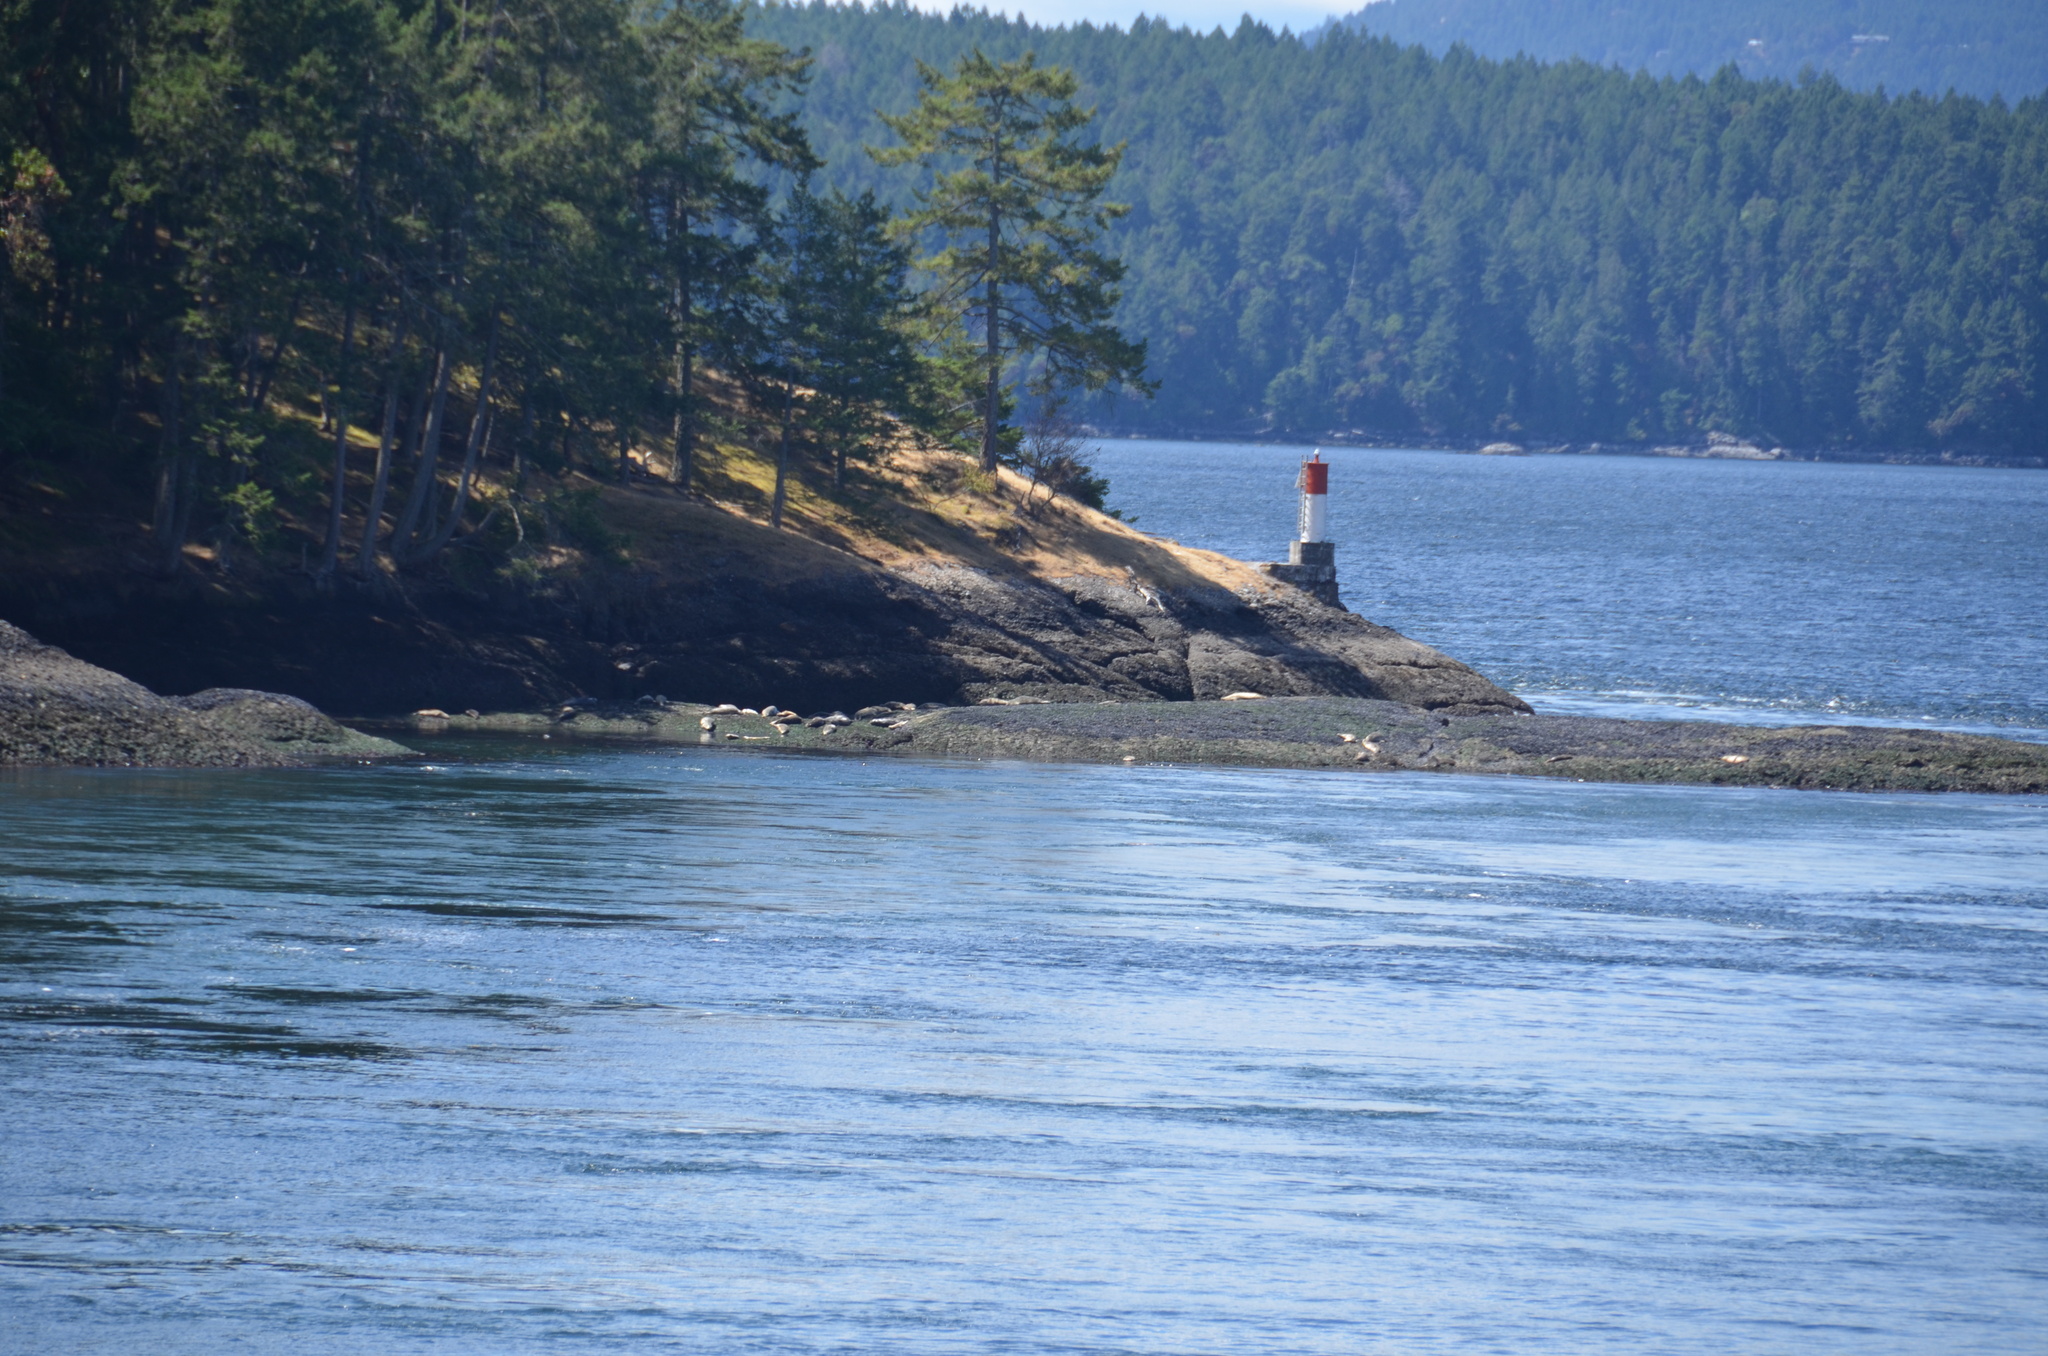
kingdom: Animalia
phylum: Chordata
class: Mammalia
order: Carnivora
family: Phocidae
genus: Phoca
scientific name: Phoca vitulina
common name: Harbor seal
